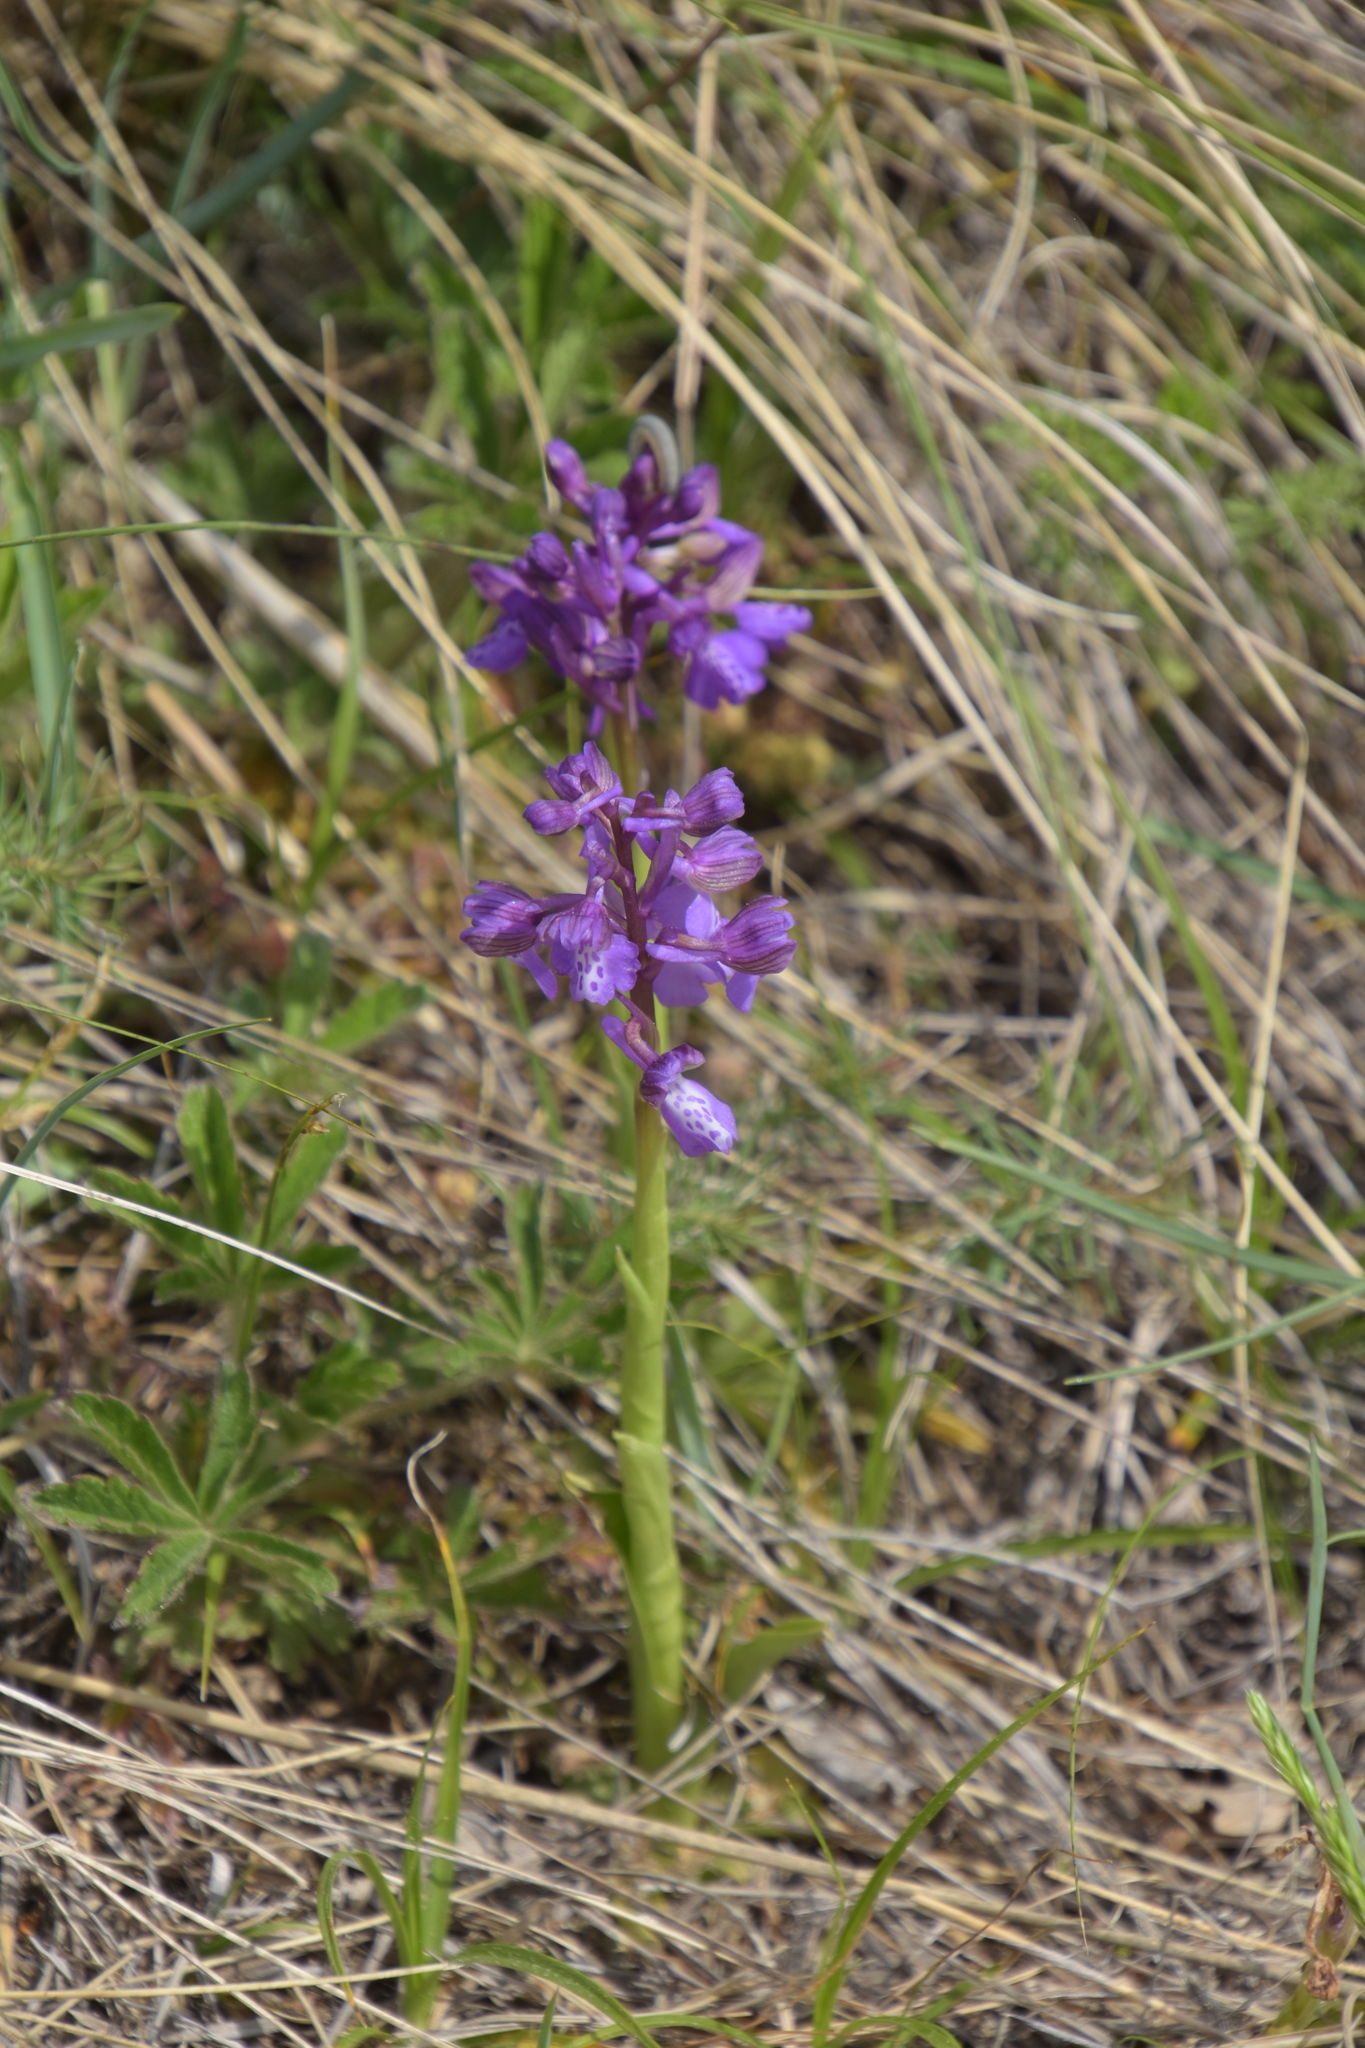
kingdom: Plantae
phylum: Tracheophyta
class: Liliopsida
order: Asparagales
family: Orchidaceae
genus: Anacamptis
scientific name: Anacamptis morio
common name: Green-winged orchid
